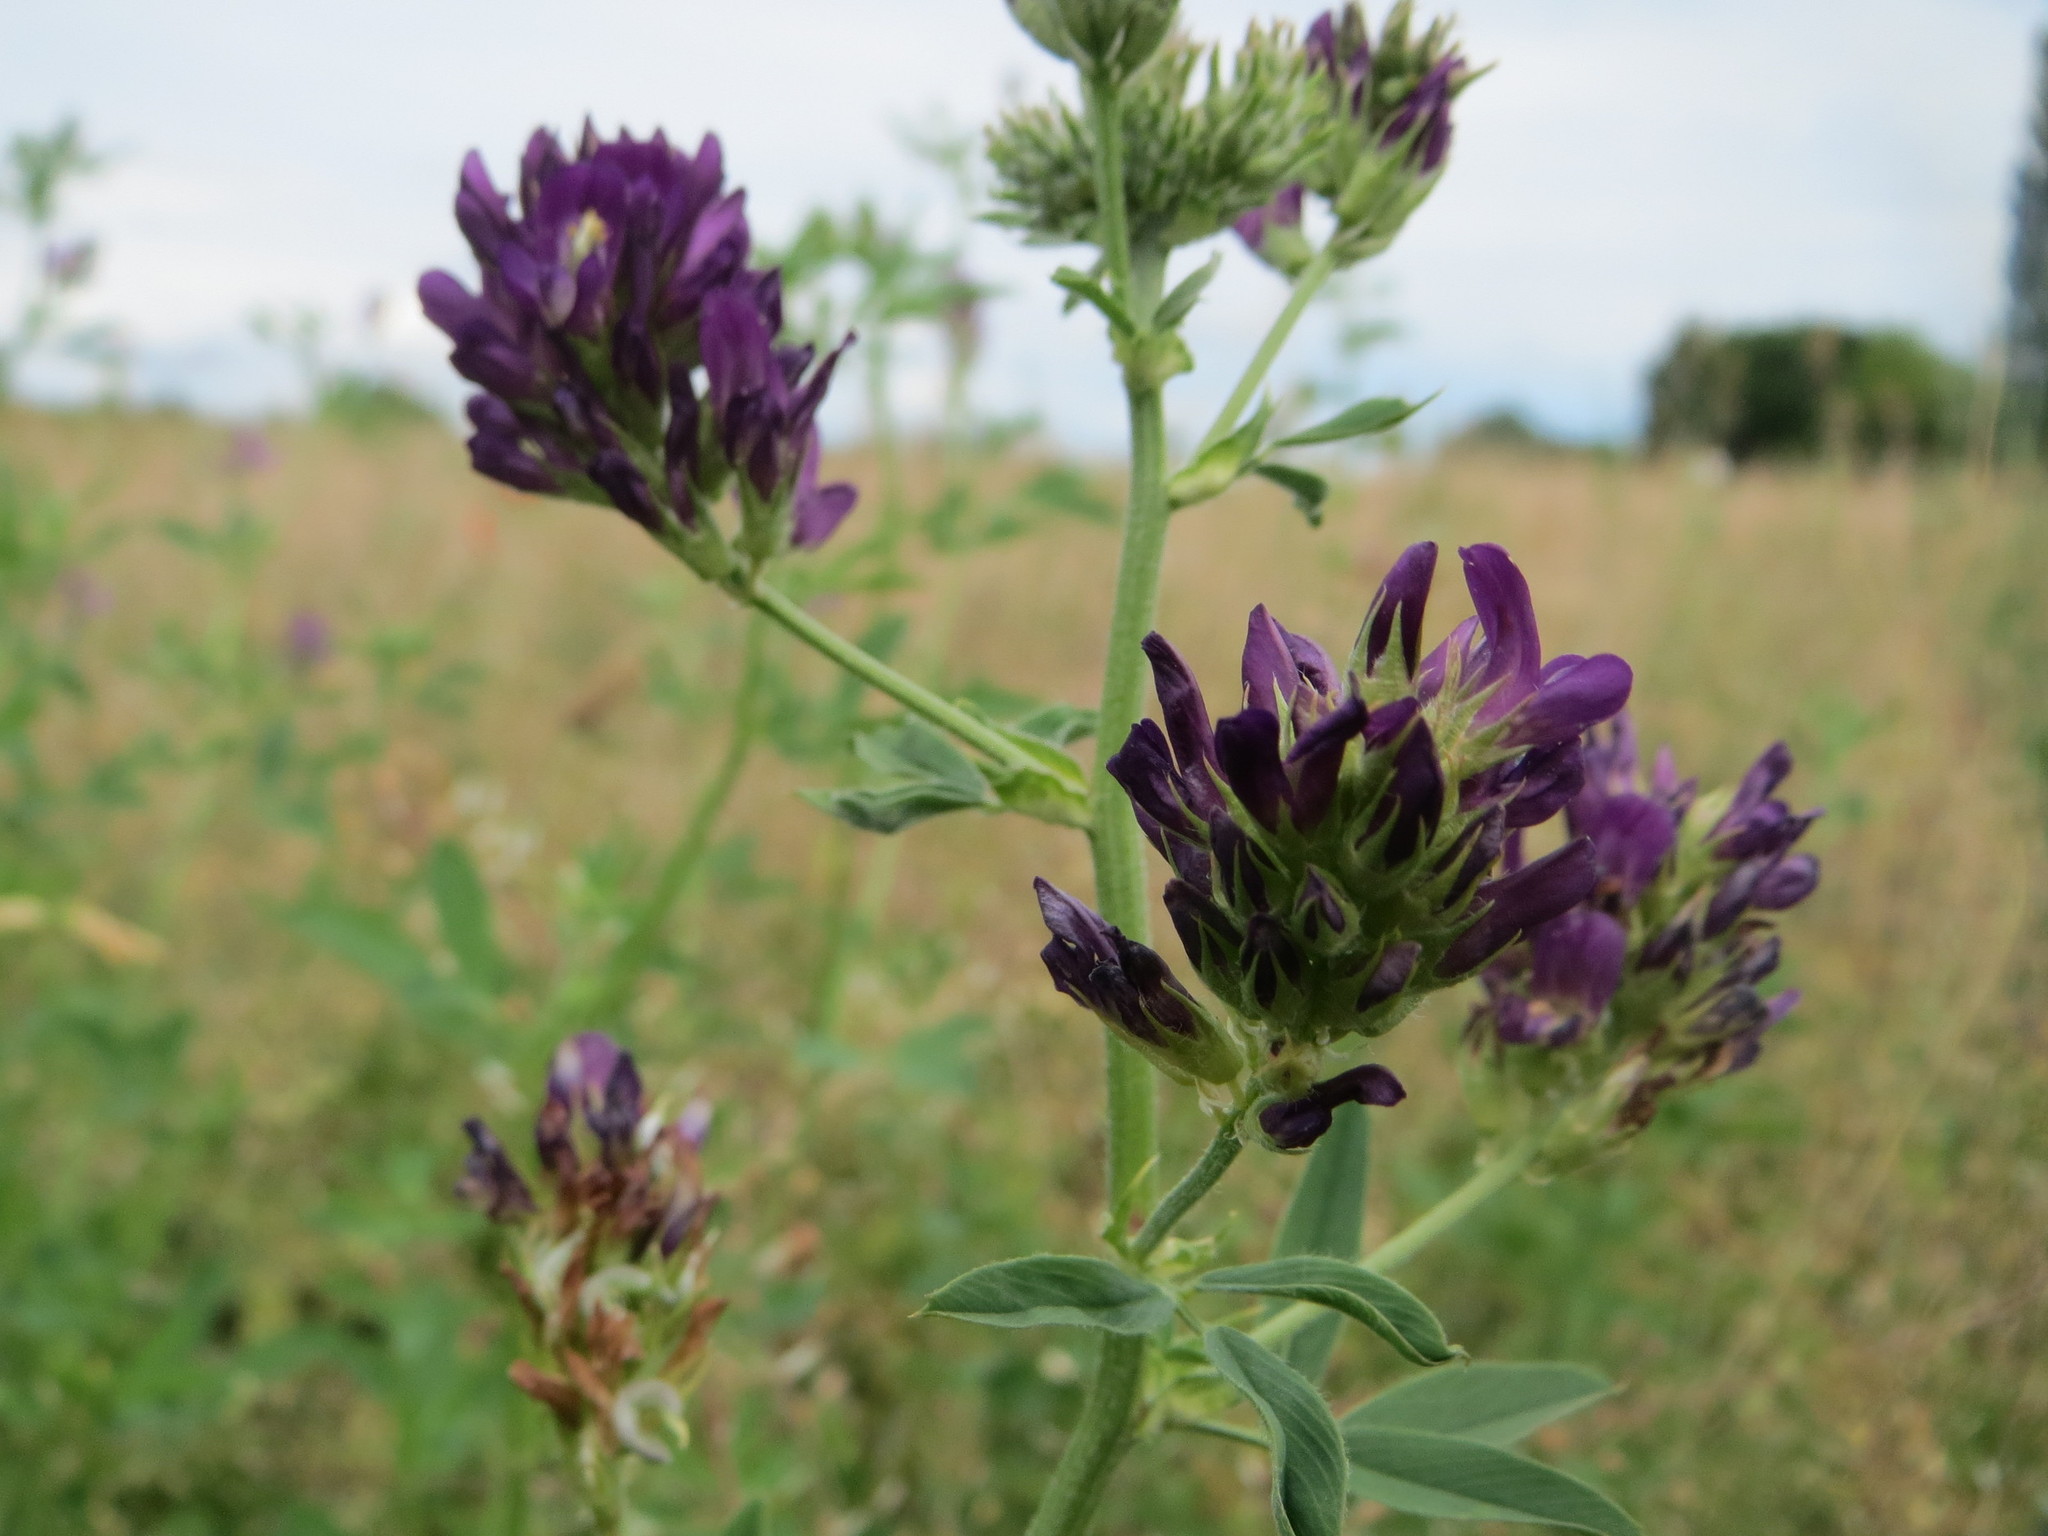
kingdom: Plantae
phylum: Tracheophyta
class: Magnoliopsida
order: Fabales
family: Fabaceae
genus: Medicago
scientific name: Medicago sativa
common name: Alfalfa
